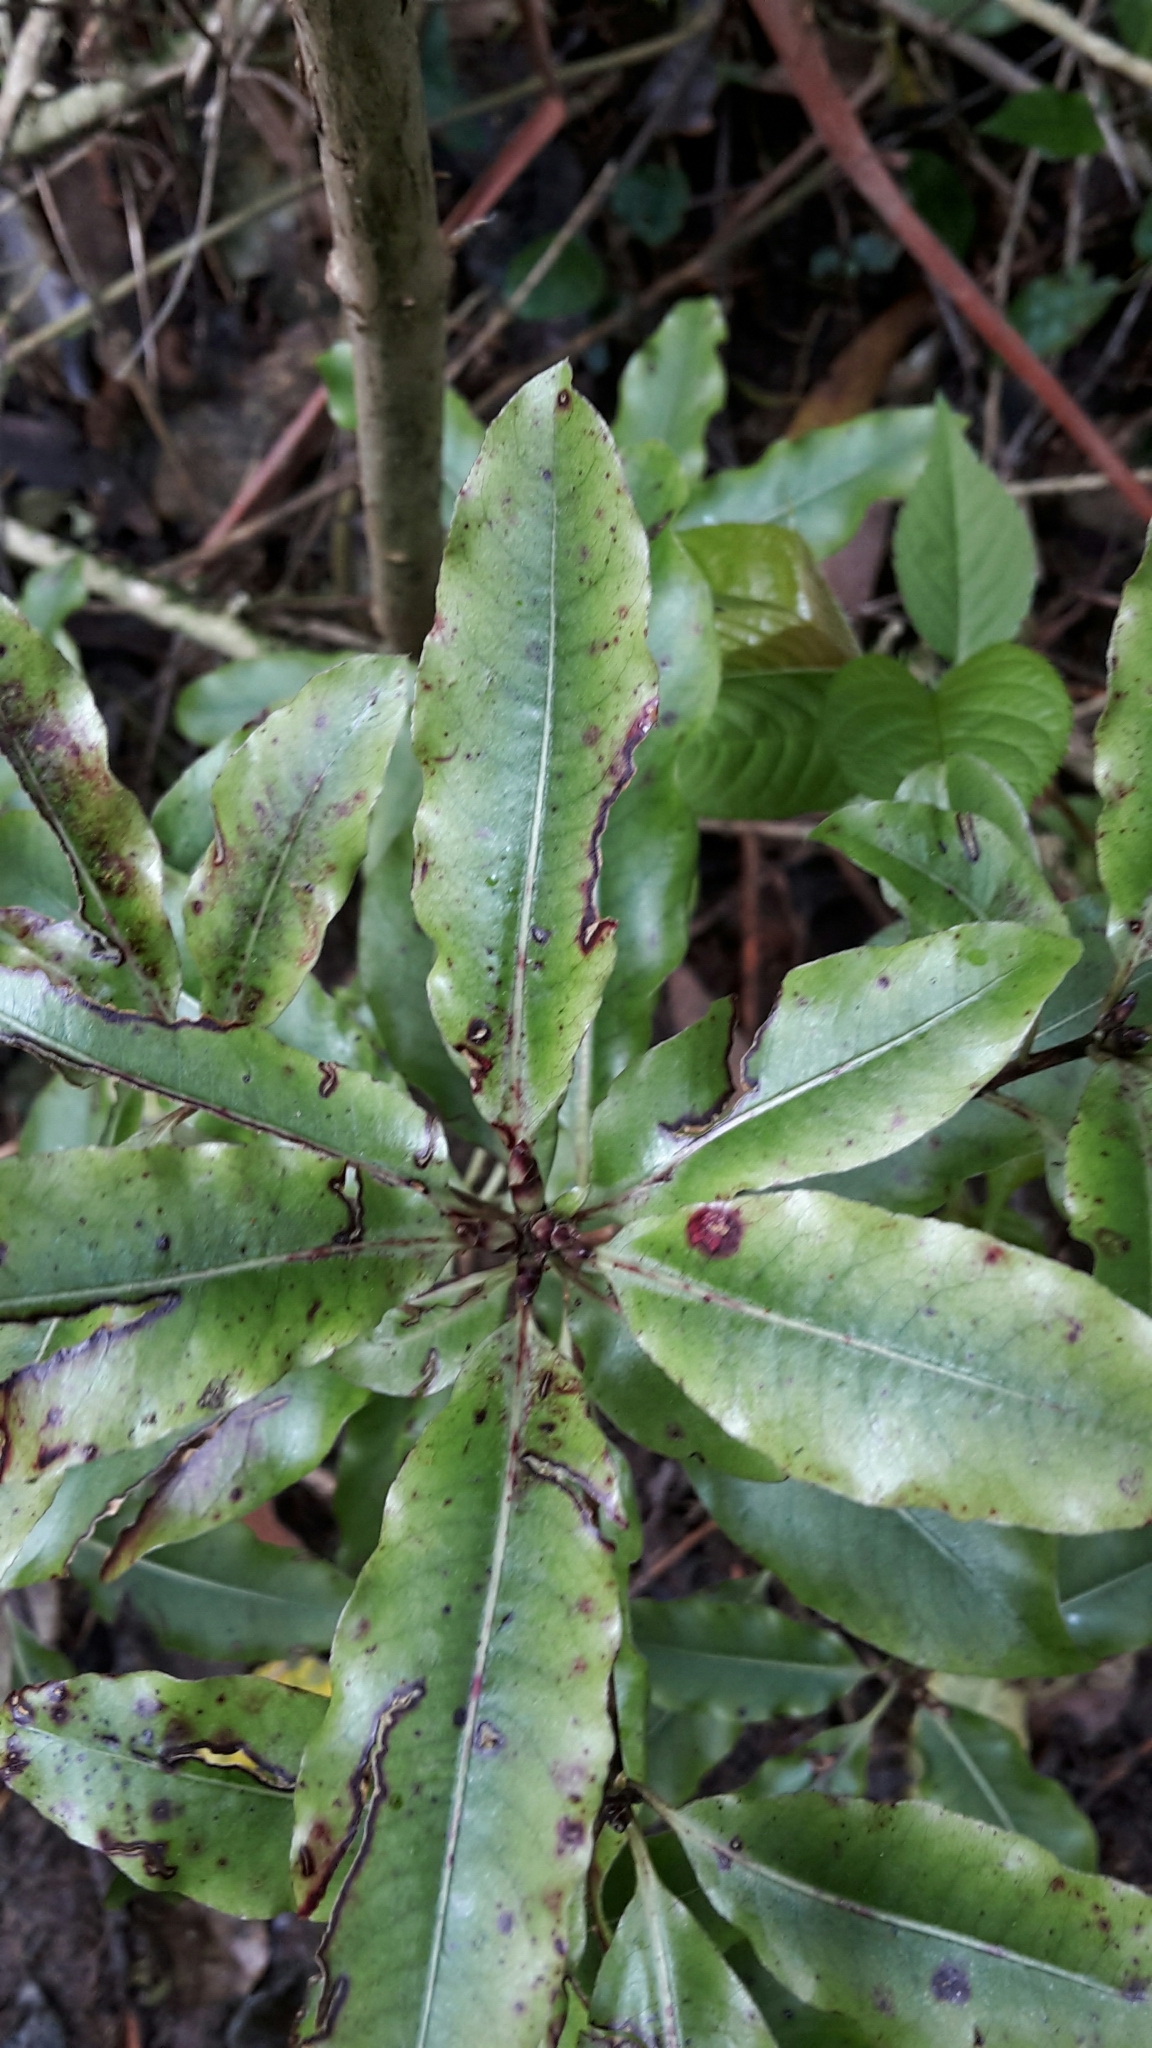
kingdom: Plantae
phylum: Tracheophyta
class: Magnoliopsida
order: Apiales
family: Pittosporaceae
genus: Pittosporum
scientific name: Pittosporum eugenioides
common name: Lemonwood
